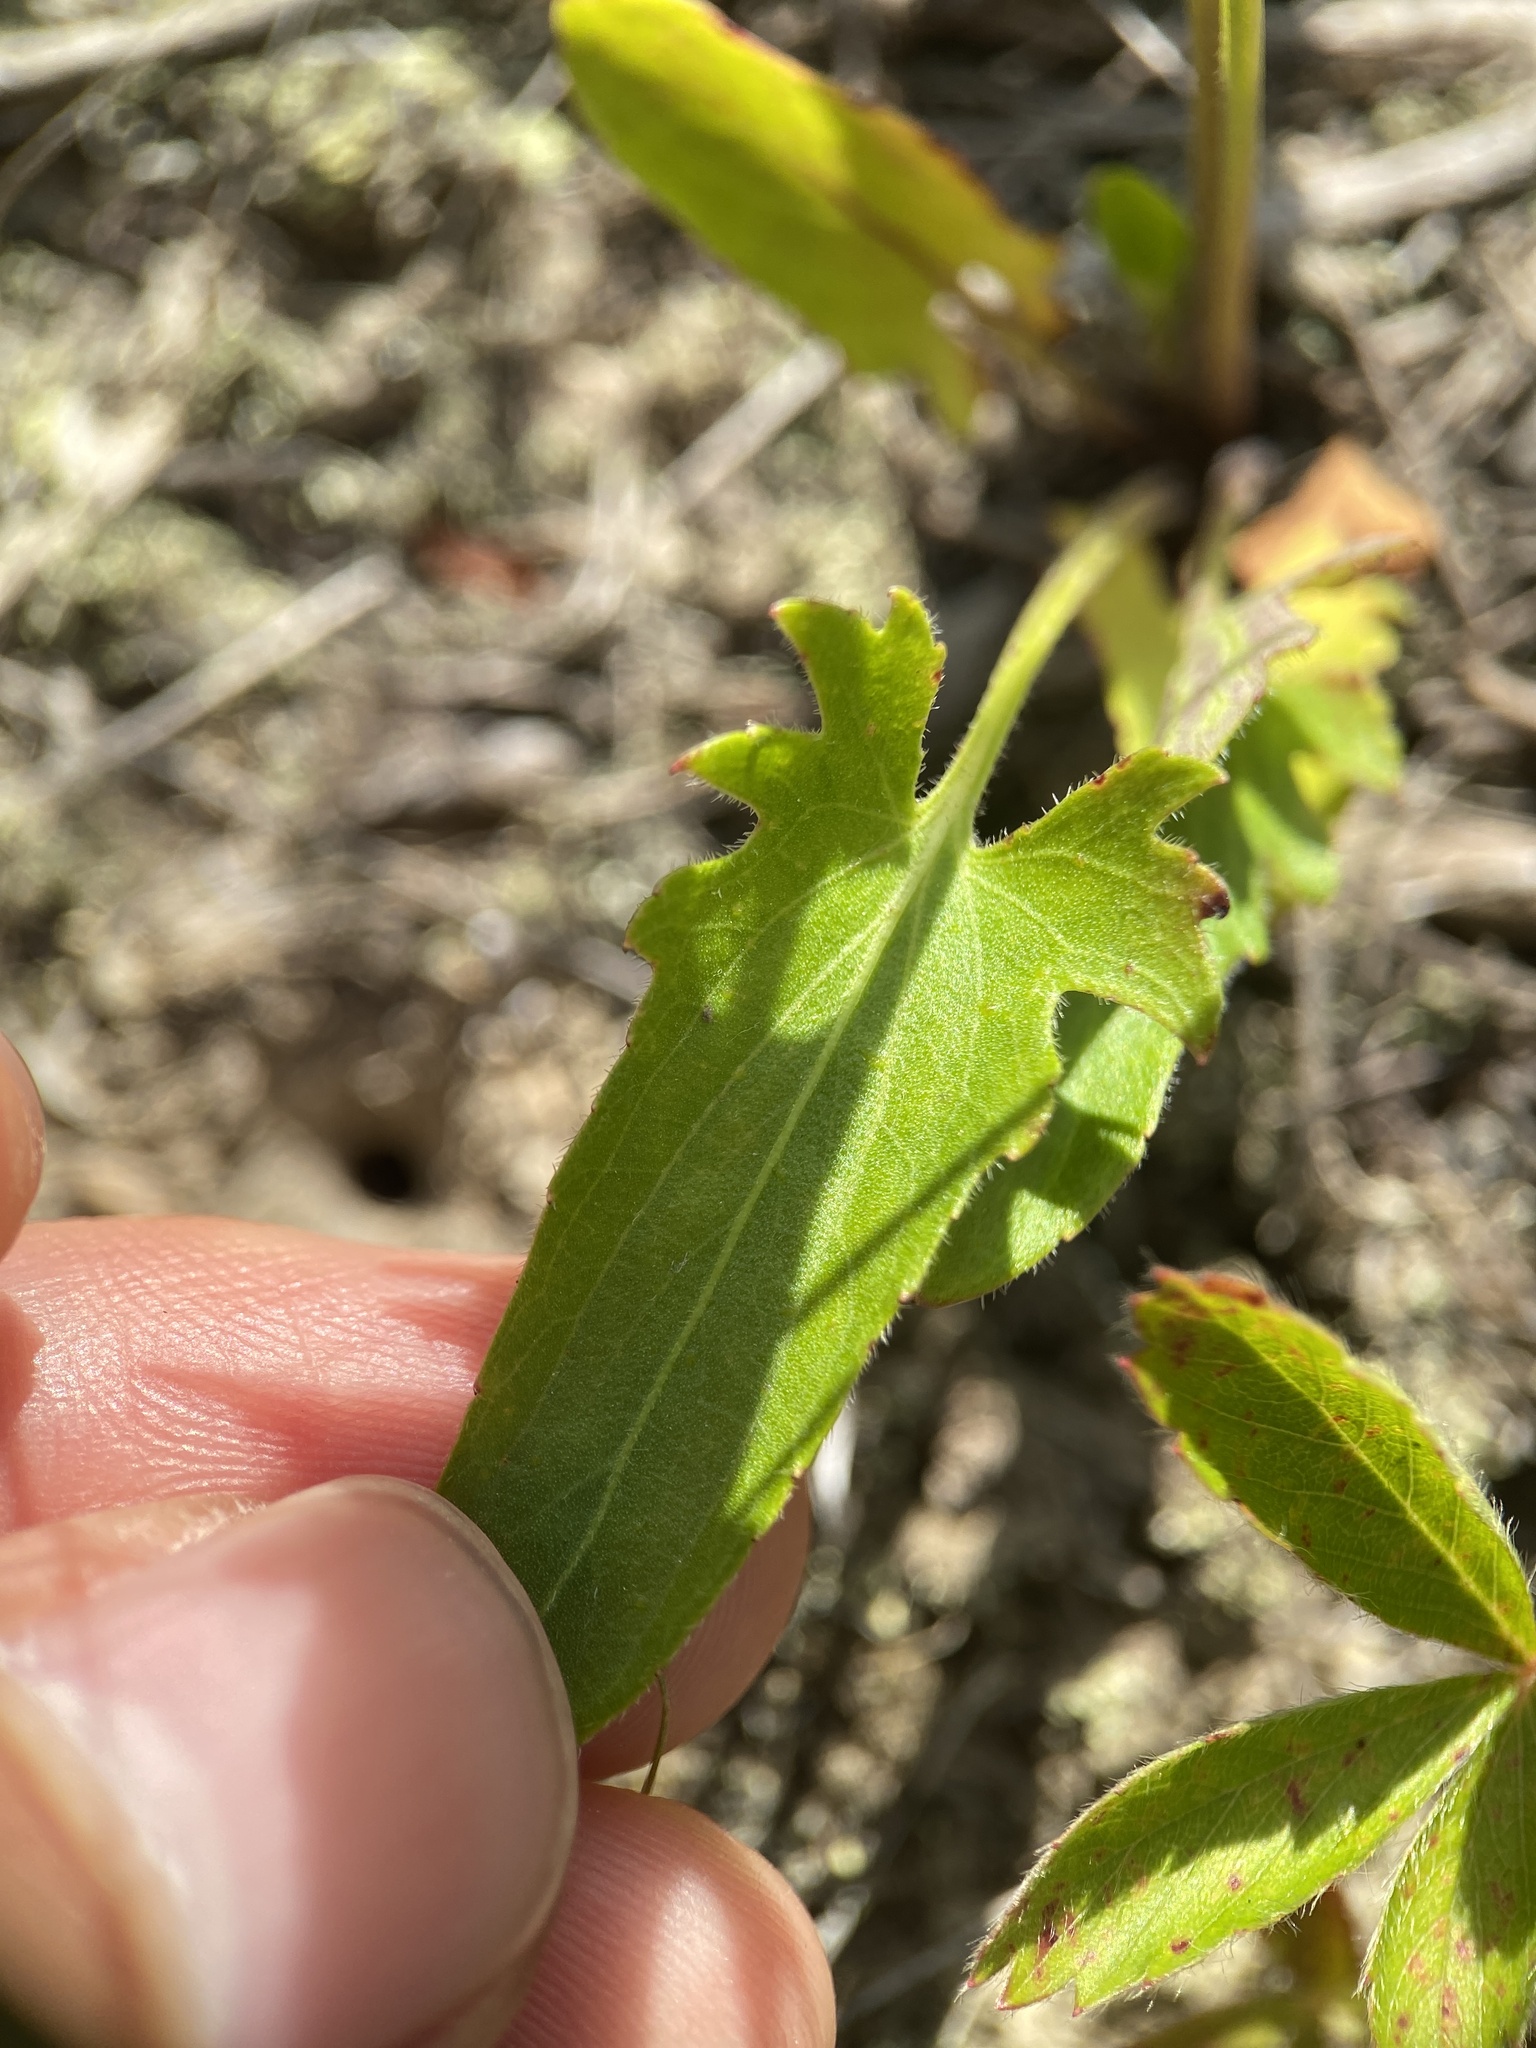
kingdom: Plantae
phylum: Tracheophyta
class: Magnoliopsida
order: Malpighiales
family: Violaceae
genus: Viola
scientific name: Viola sagittata
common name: Arrowhead violet
